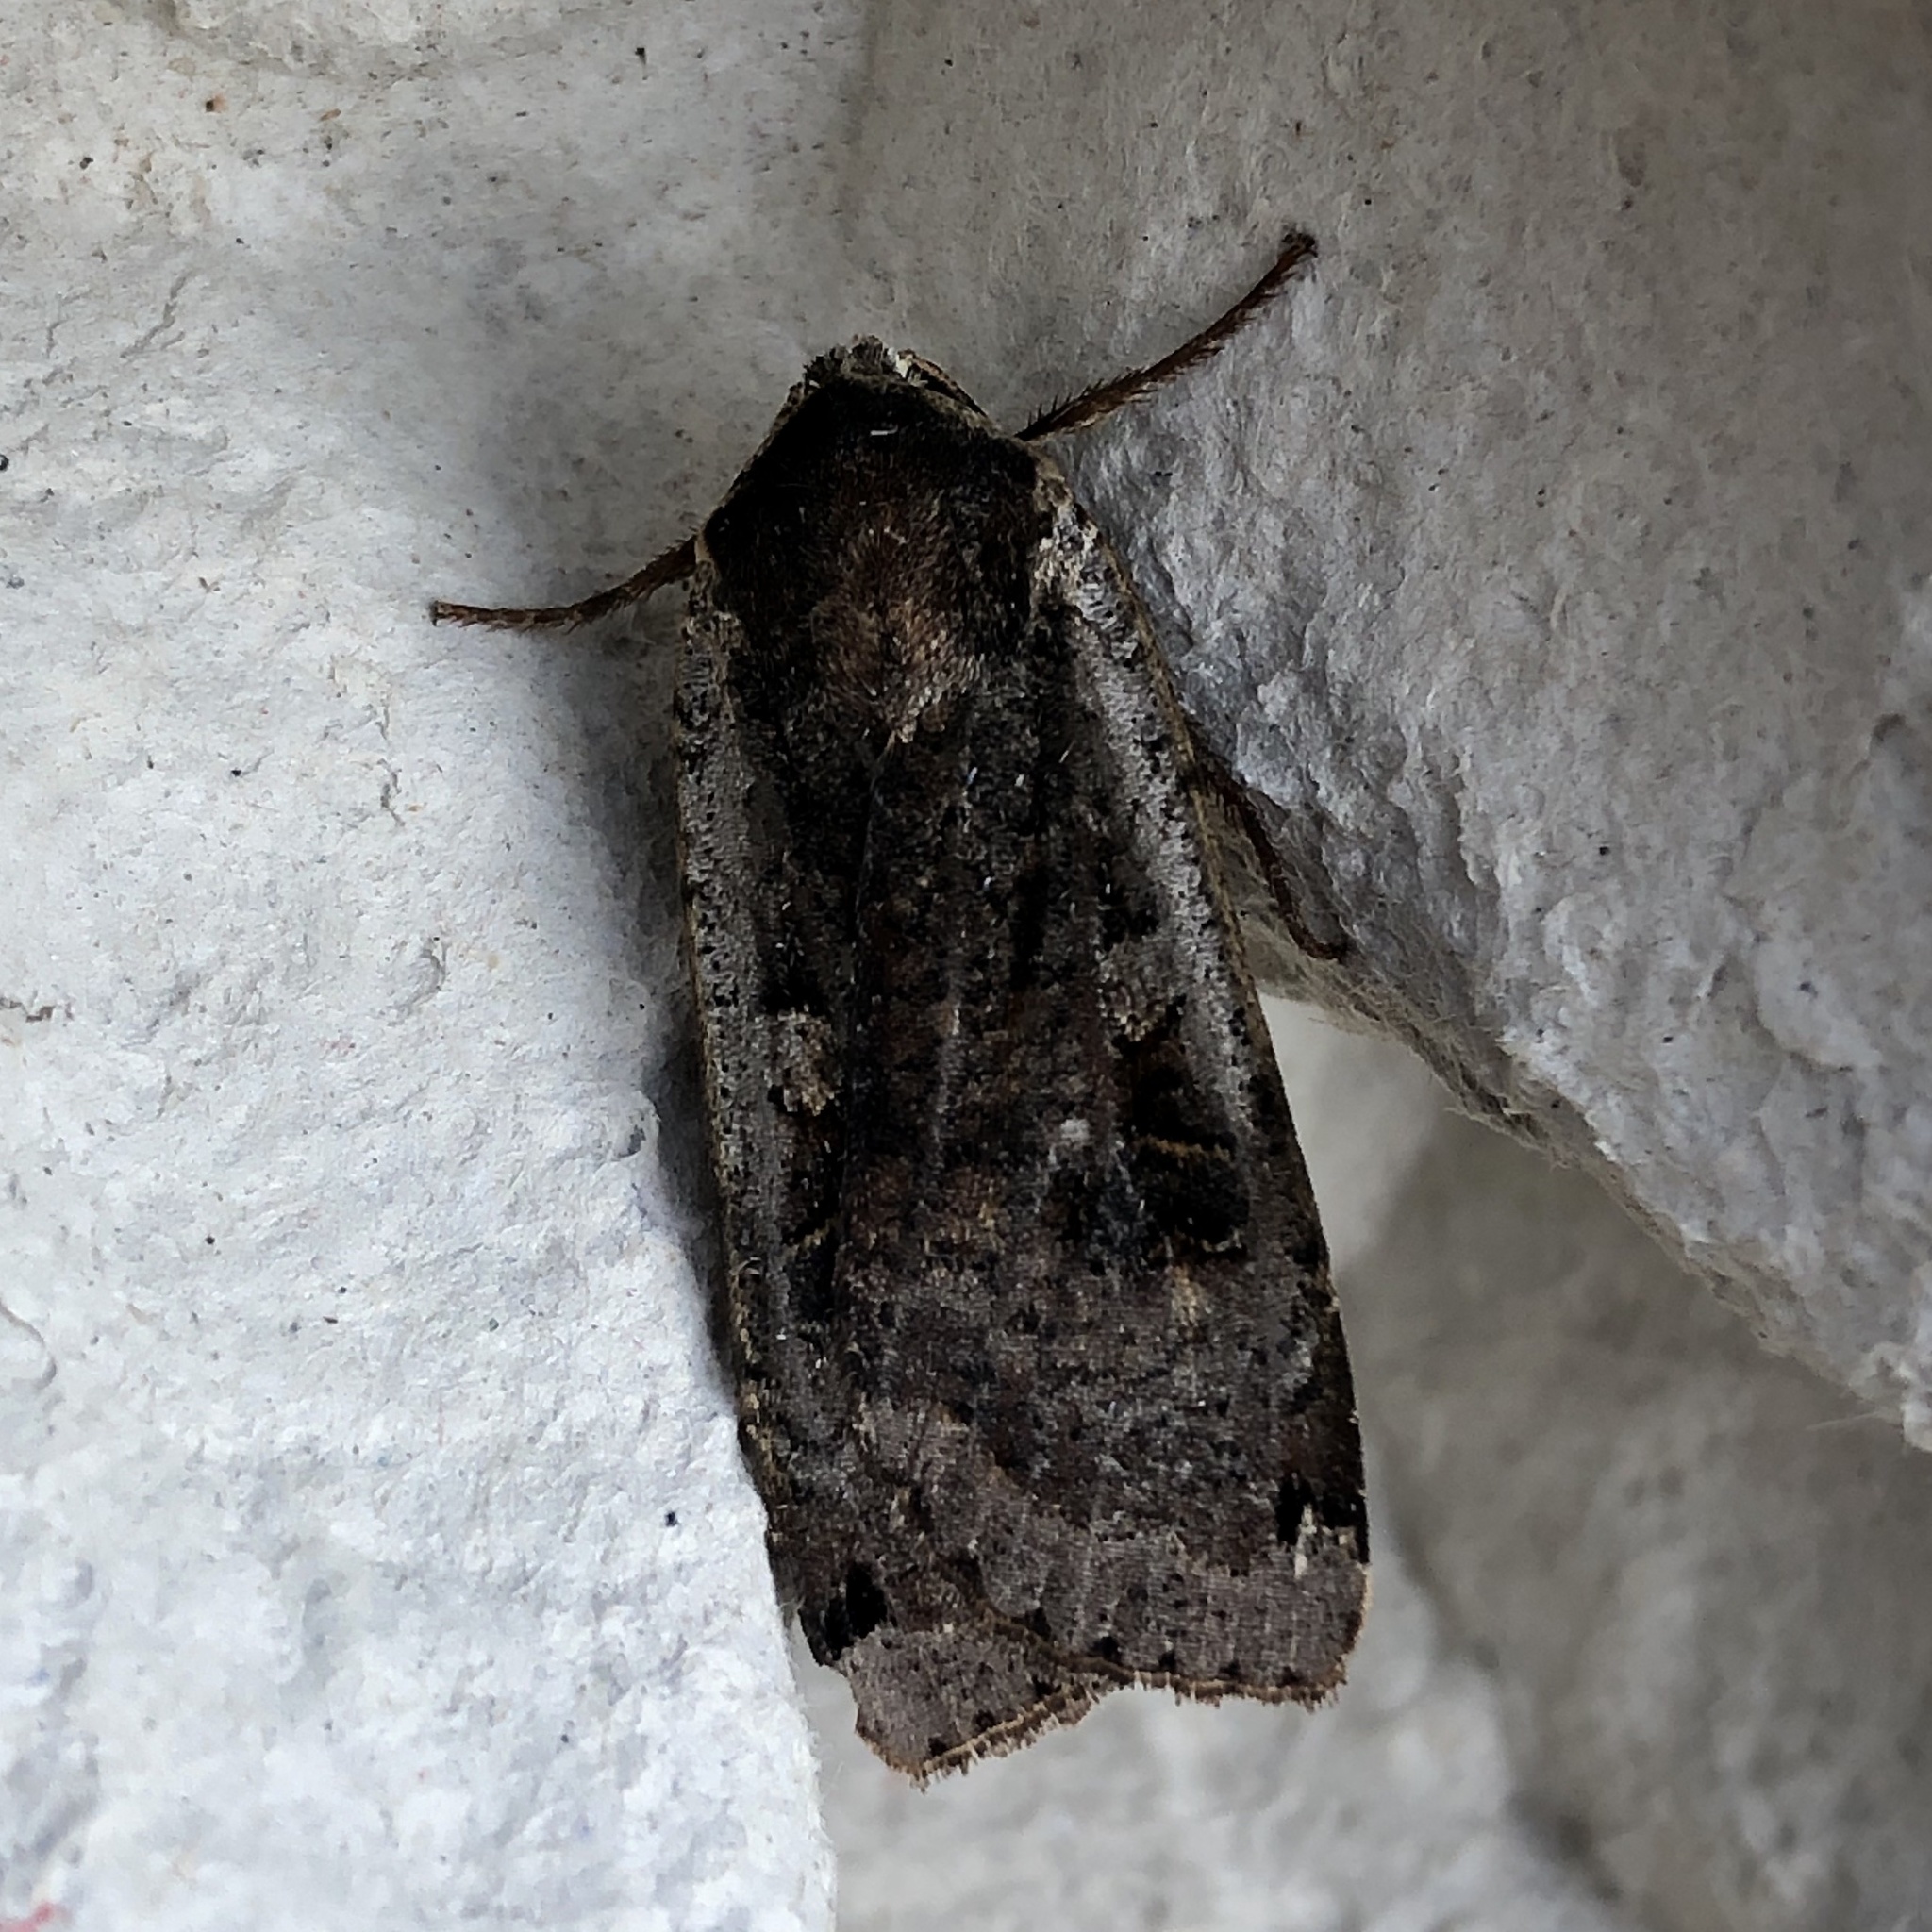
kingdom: Animalia
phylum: Arthropoda
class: Insecta
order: Lepidoptera
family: Noctuidae
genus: Noctua
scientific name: Noctua pronuba
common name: Large yellow underwing
